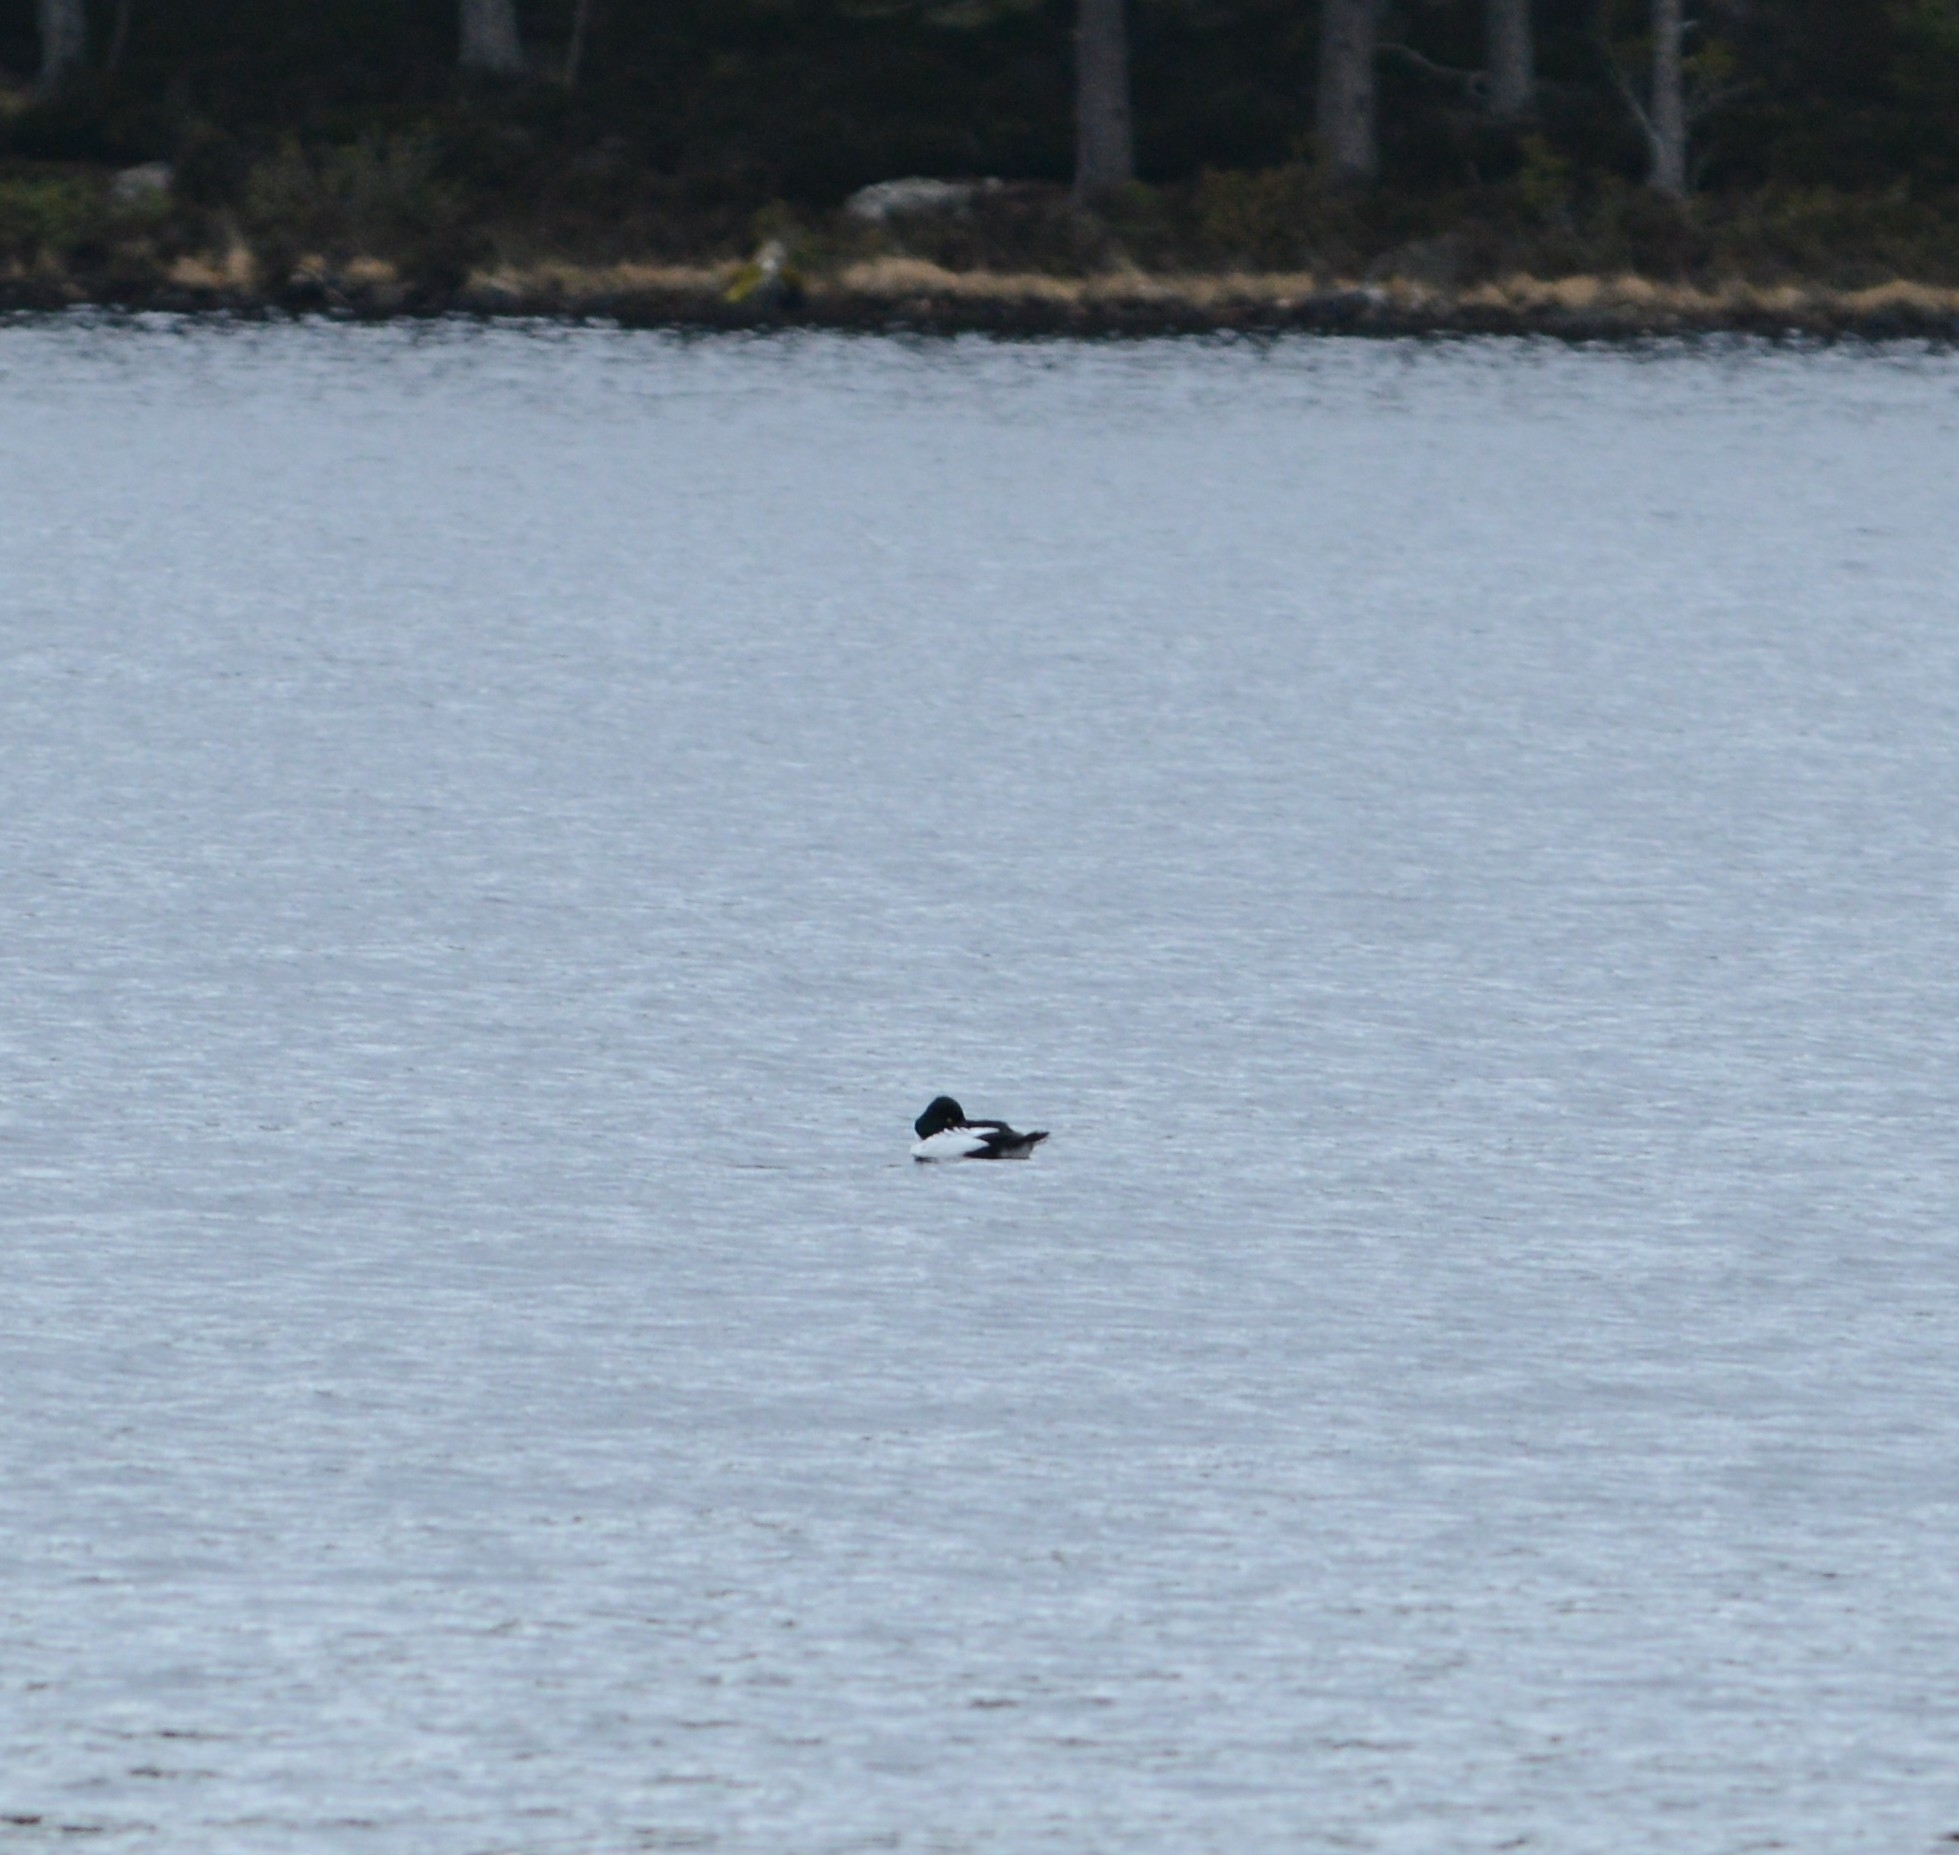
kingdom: Animalia
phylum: Chordata
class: Aves
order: Anseriformes
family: Anatidae
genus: Bucephala
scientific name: Bucephala clangula
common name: Common goldeneye
